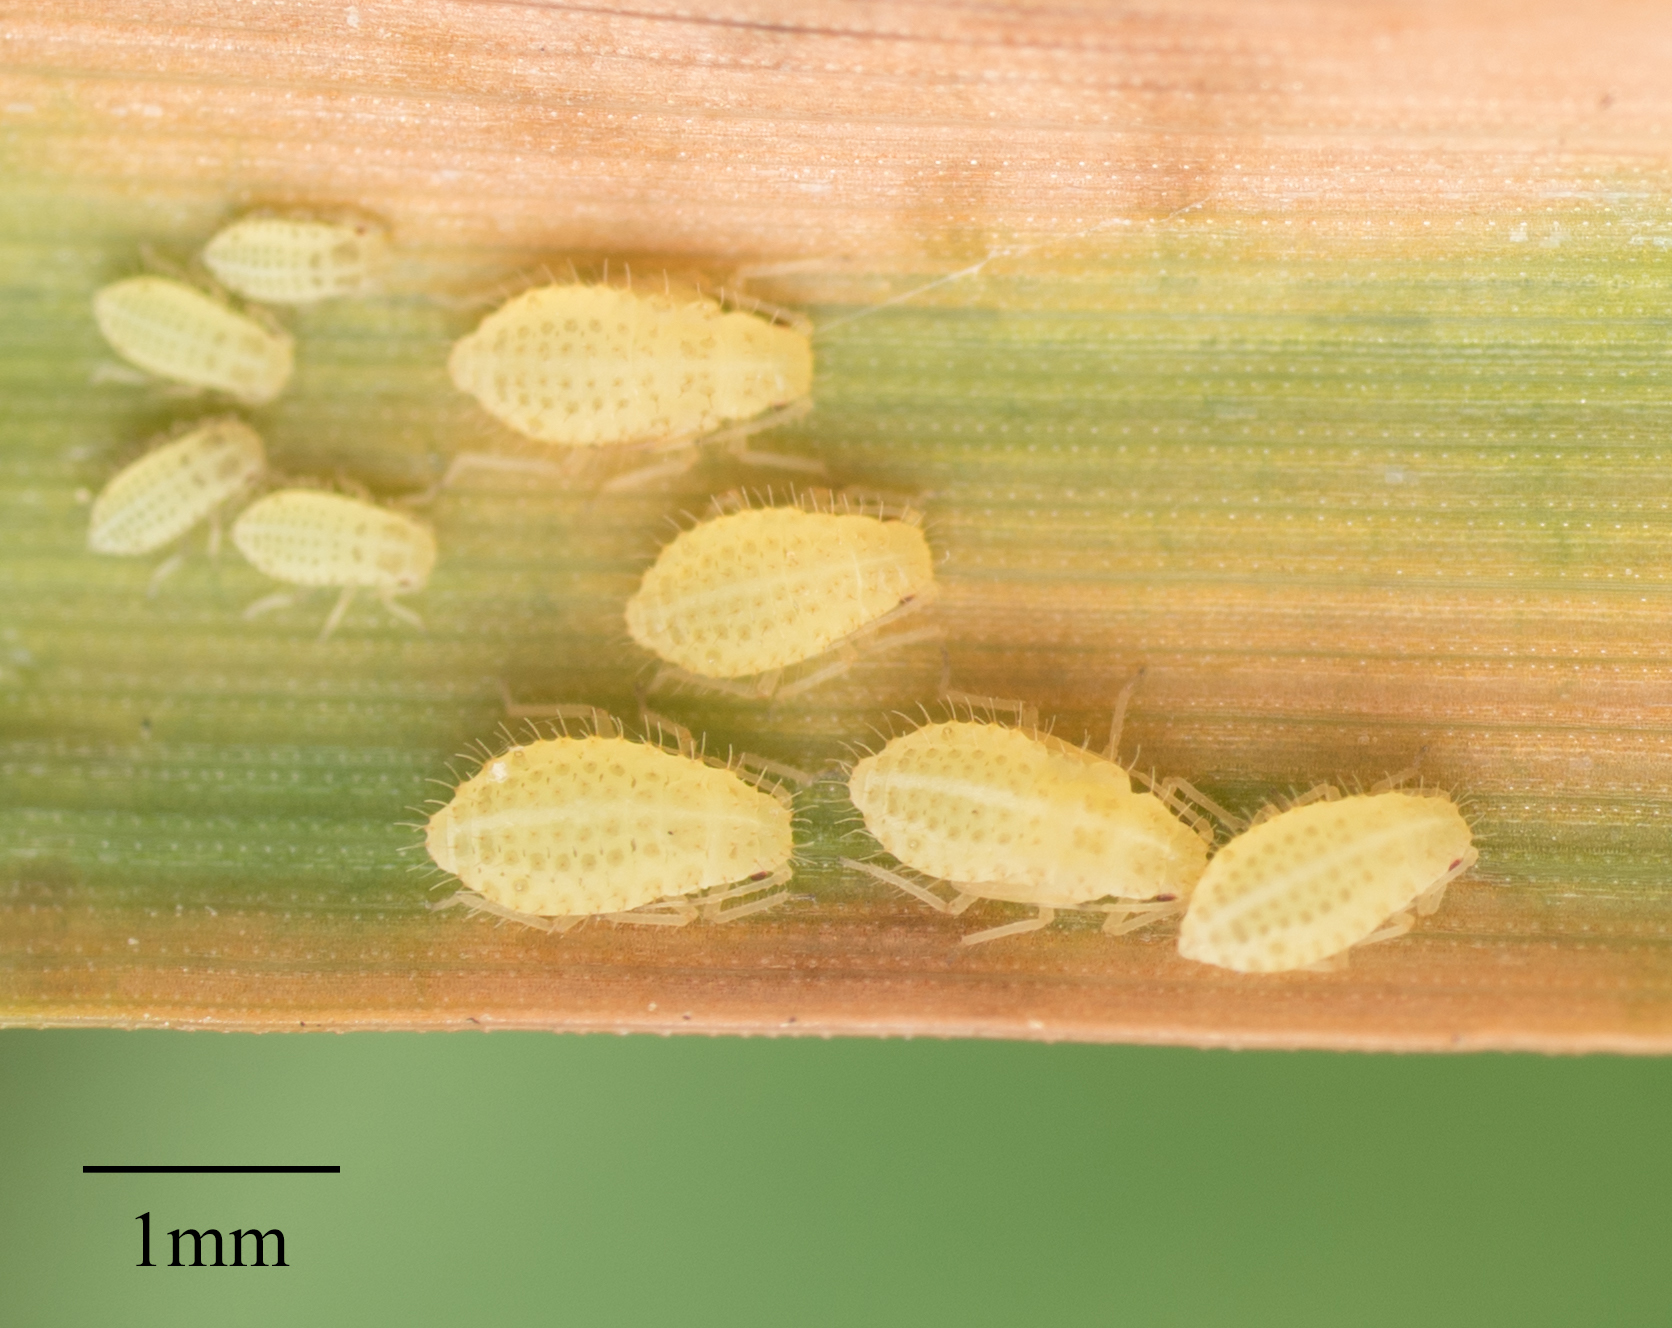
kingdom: Animalia
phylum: Arthropoda
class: Insecta
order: Hemiptera
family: Aphididae
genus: Sipha
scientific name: Sipha flava
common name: Yellow sugarcane aphid
